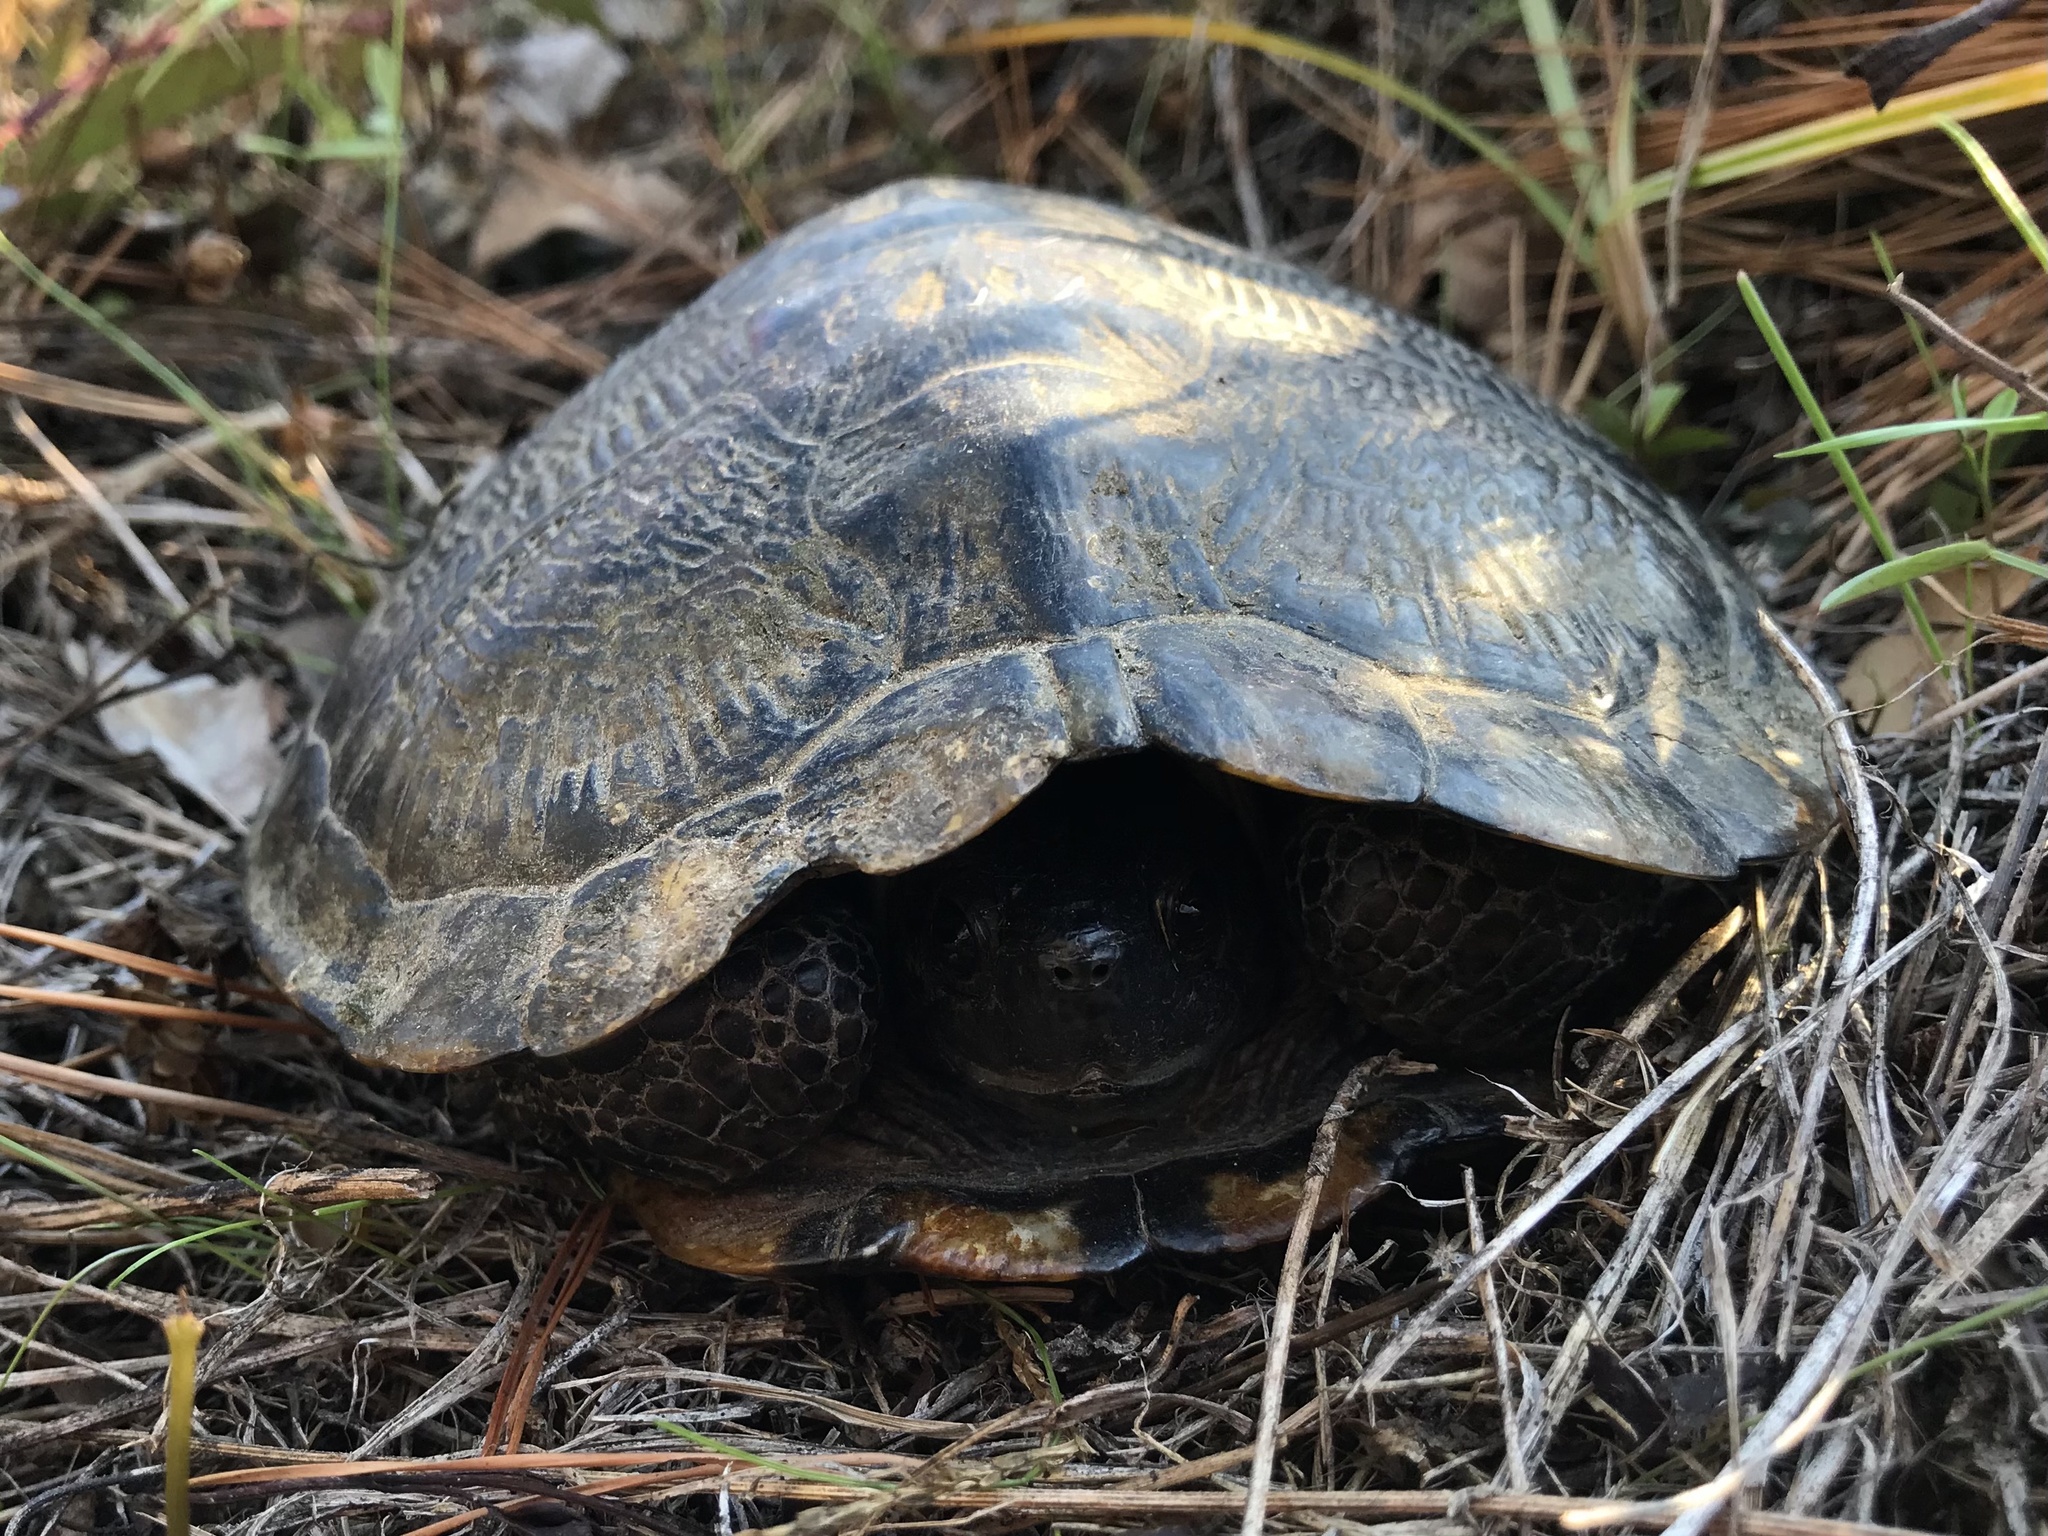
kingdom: Animalia
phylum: Chordata
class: Testudines
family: Emydidae
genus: Trachemys
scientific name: Trachemys scripta
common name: Slider
